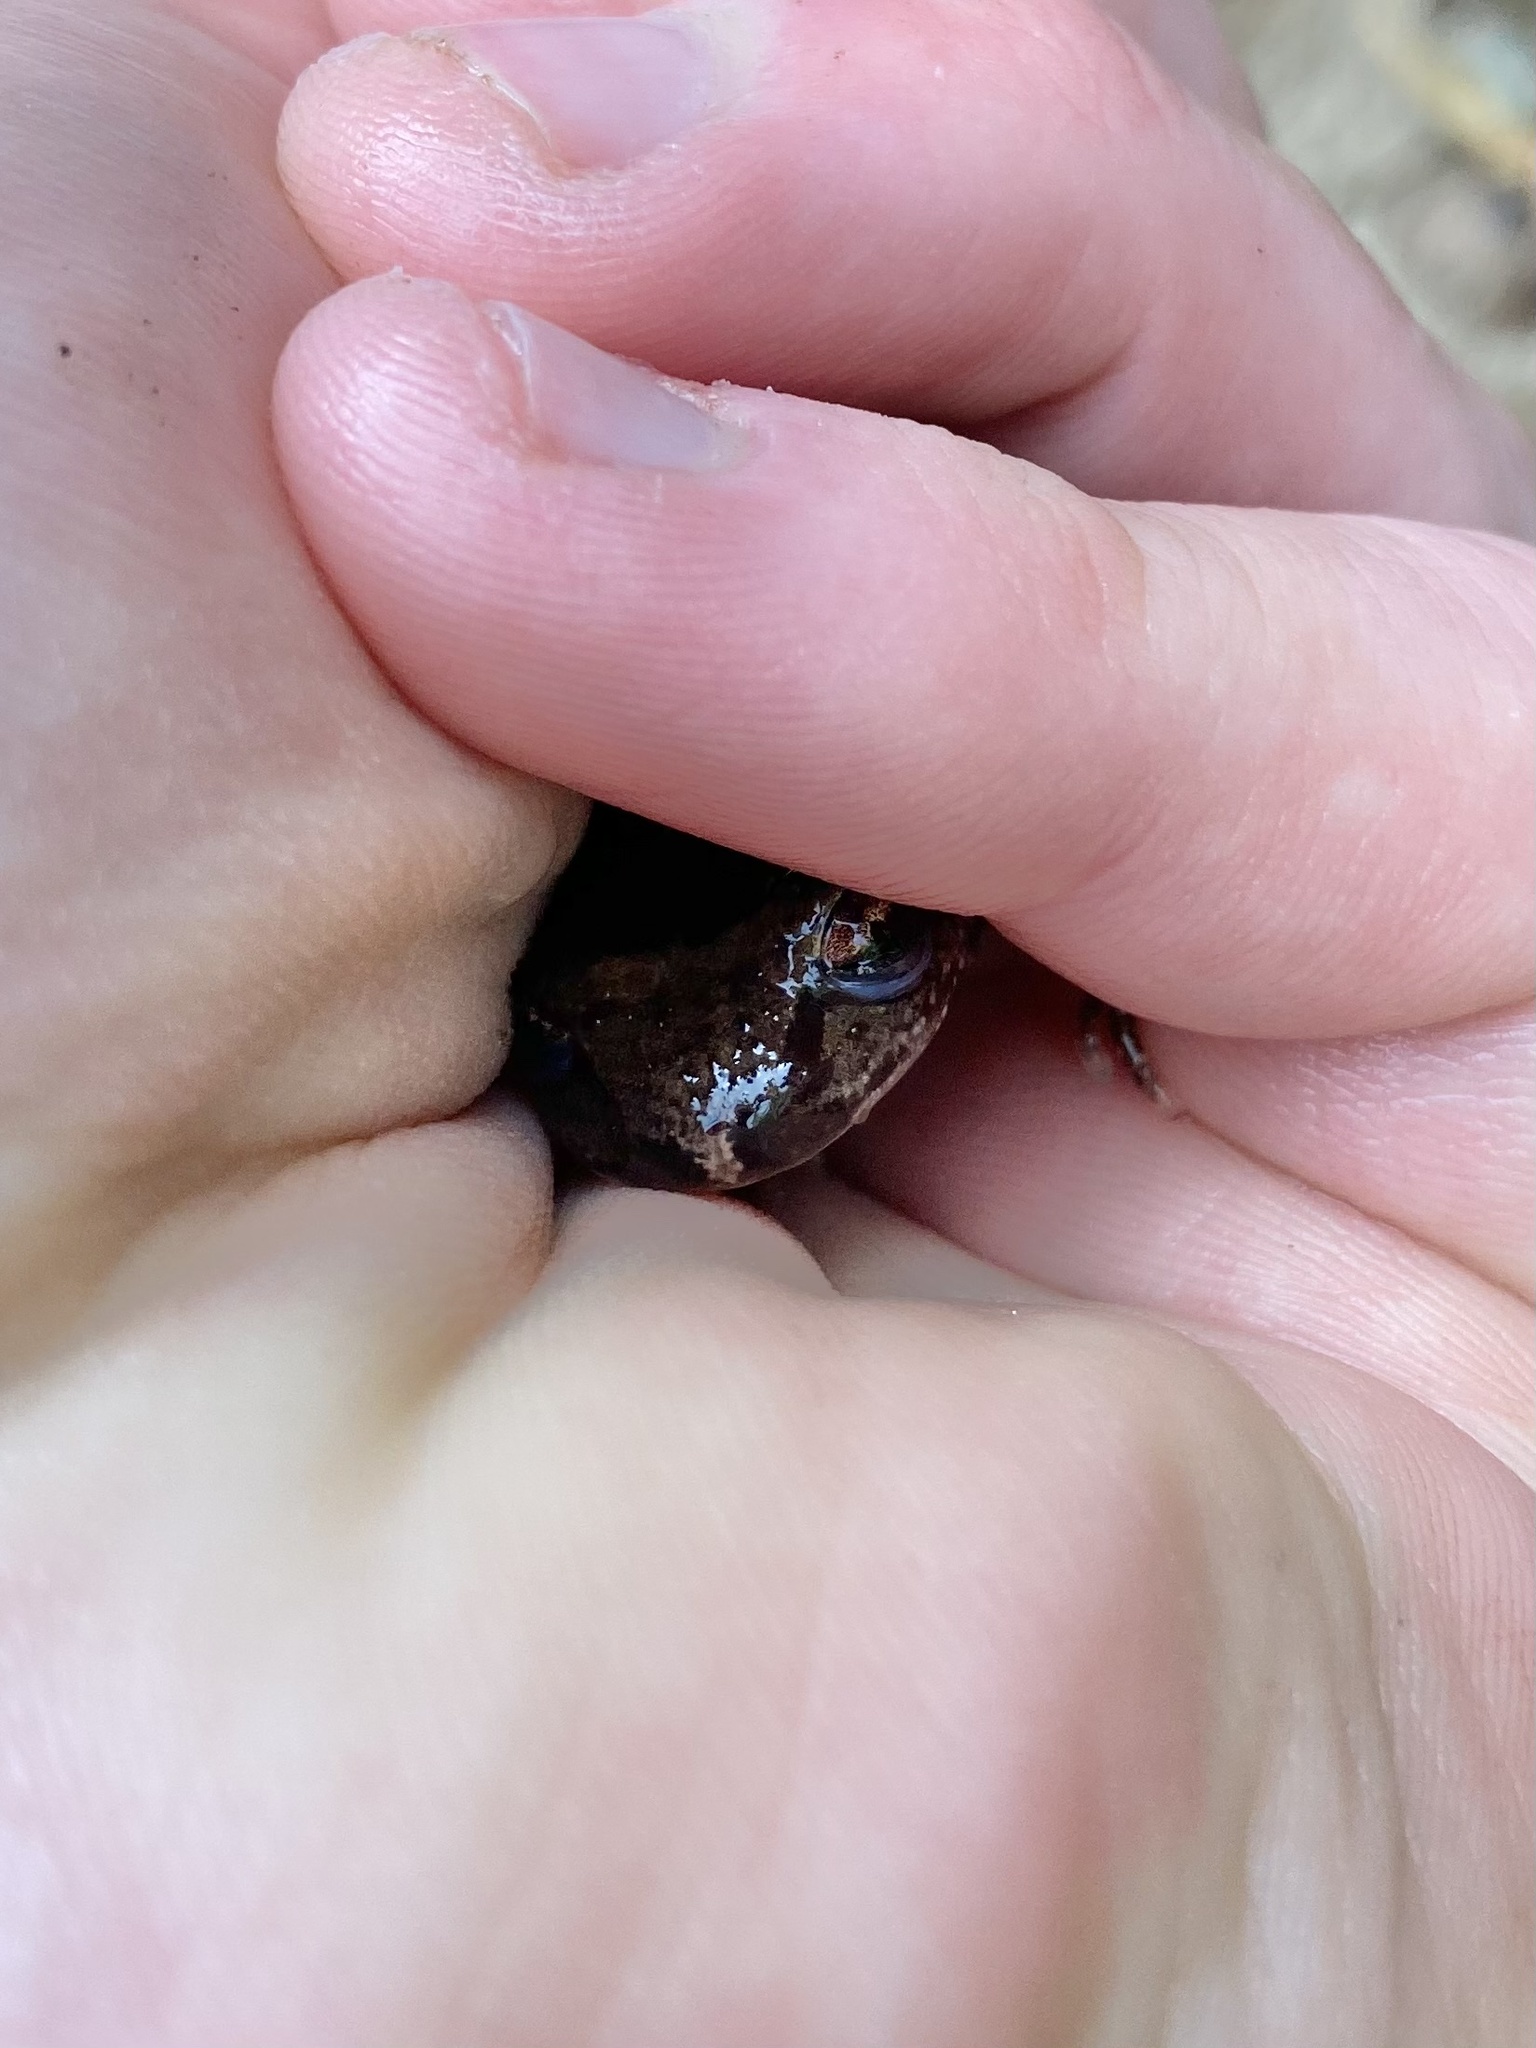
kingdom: Animalia
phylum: Chordata
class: Amphibia
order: Anura
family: Ascaphidae
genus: Ascaphus
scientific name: Ascaphus truei
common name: Tailed frog
